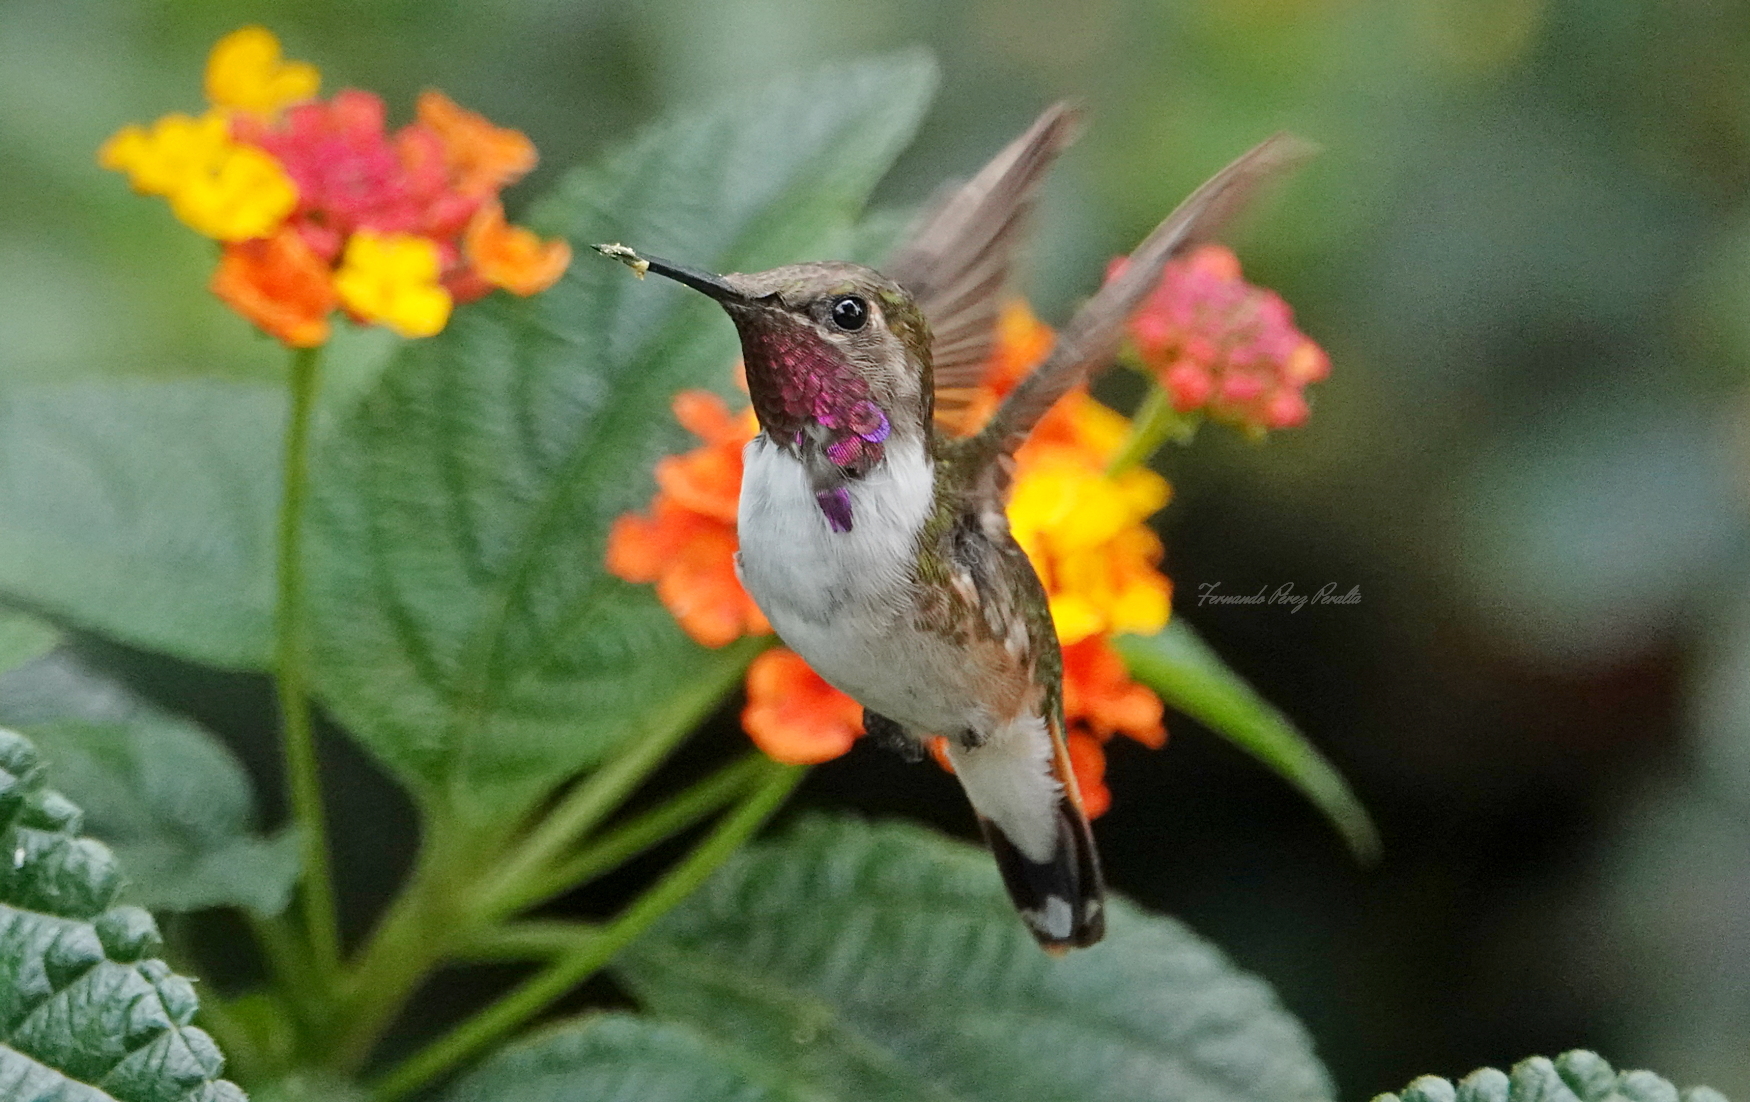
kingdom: Animalia
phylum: Chordata
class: Aves
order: Apodiformes
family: Trochilidae
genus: Selasphorus
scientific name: Selasphorus heloisa
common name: Bumblebee hummingbird
